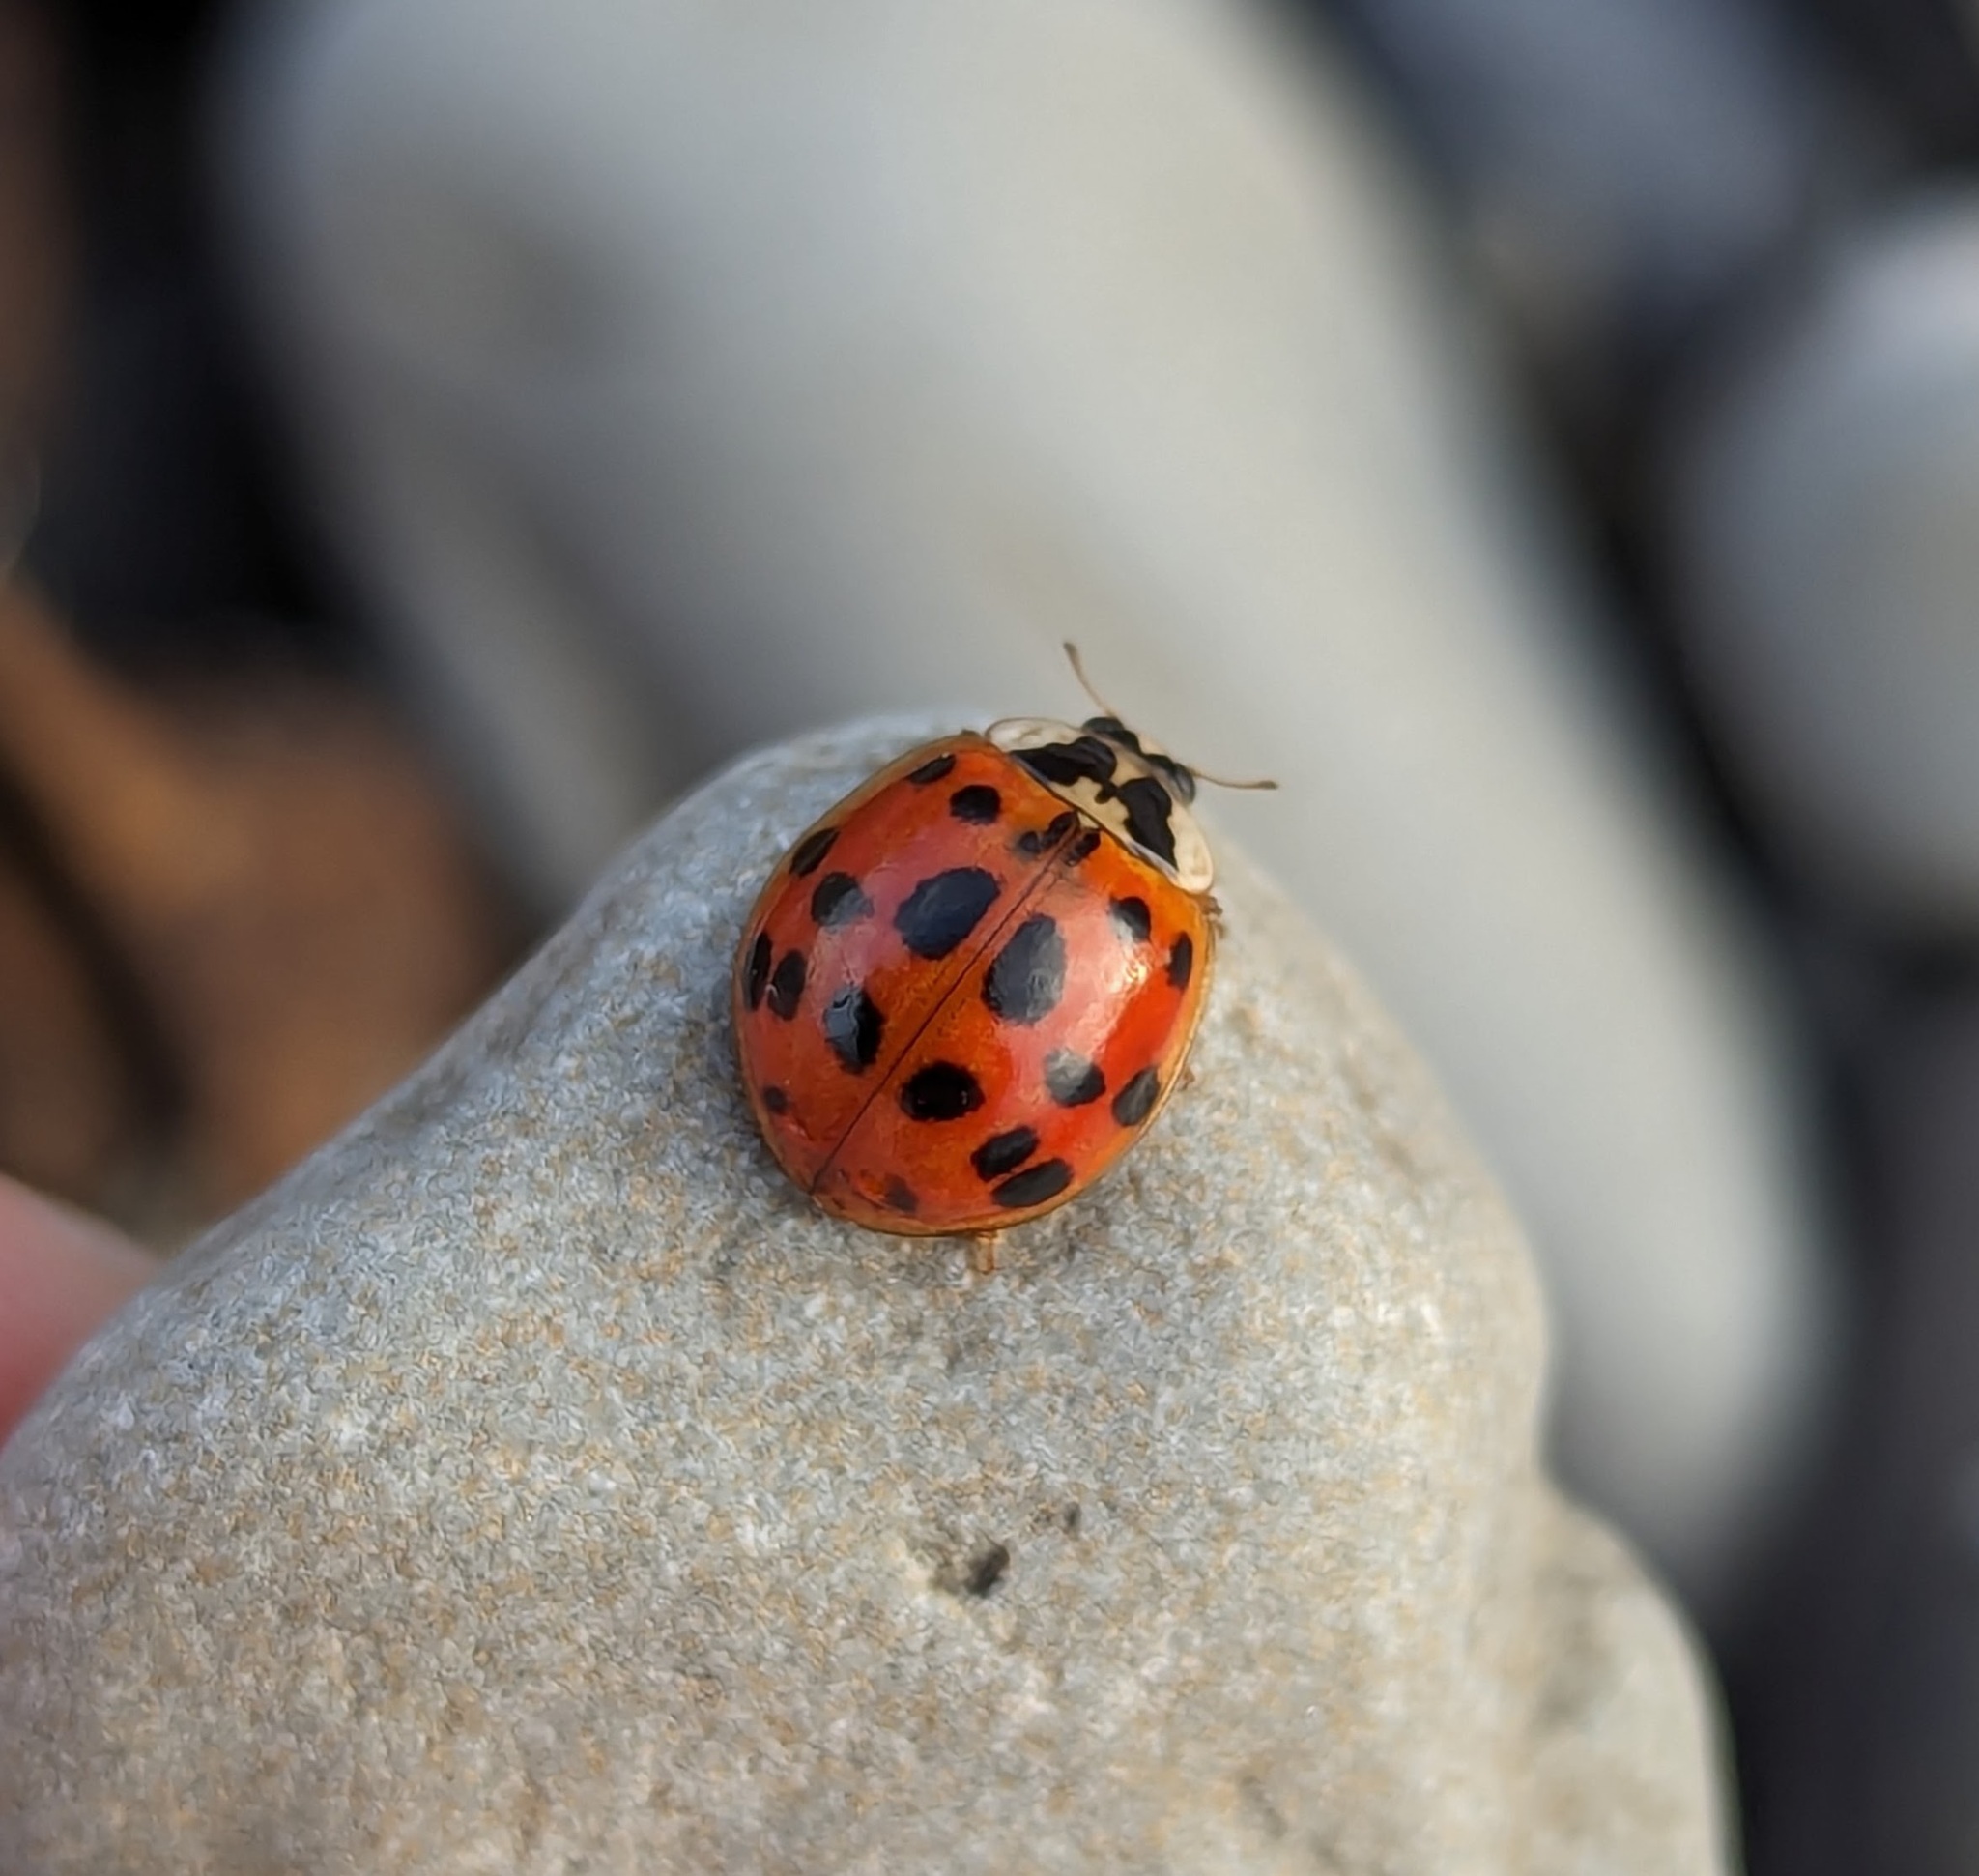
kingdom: Animalia
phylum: Arthropoda
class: Insecta
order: Coleoptera
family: Coccinellidae
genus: Harmonia
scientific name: Harmonia axyridis
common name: Harlequin ladybird
